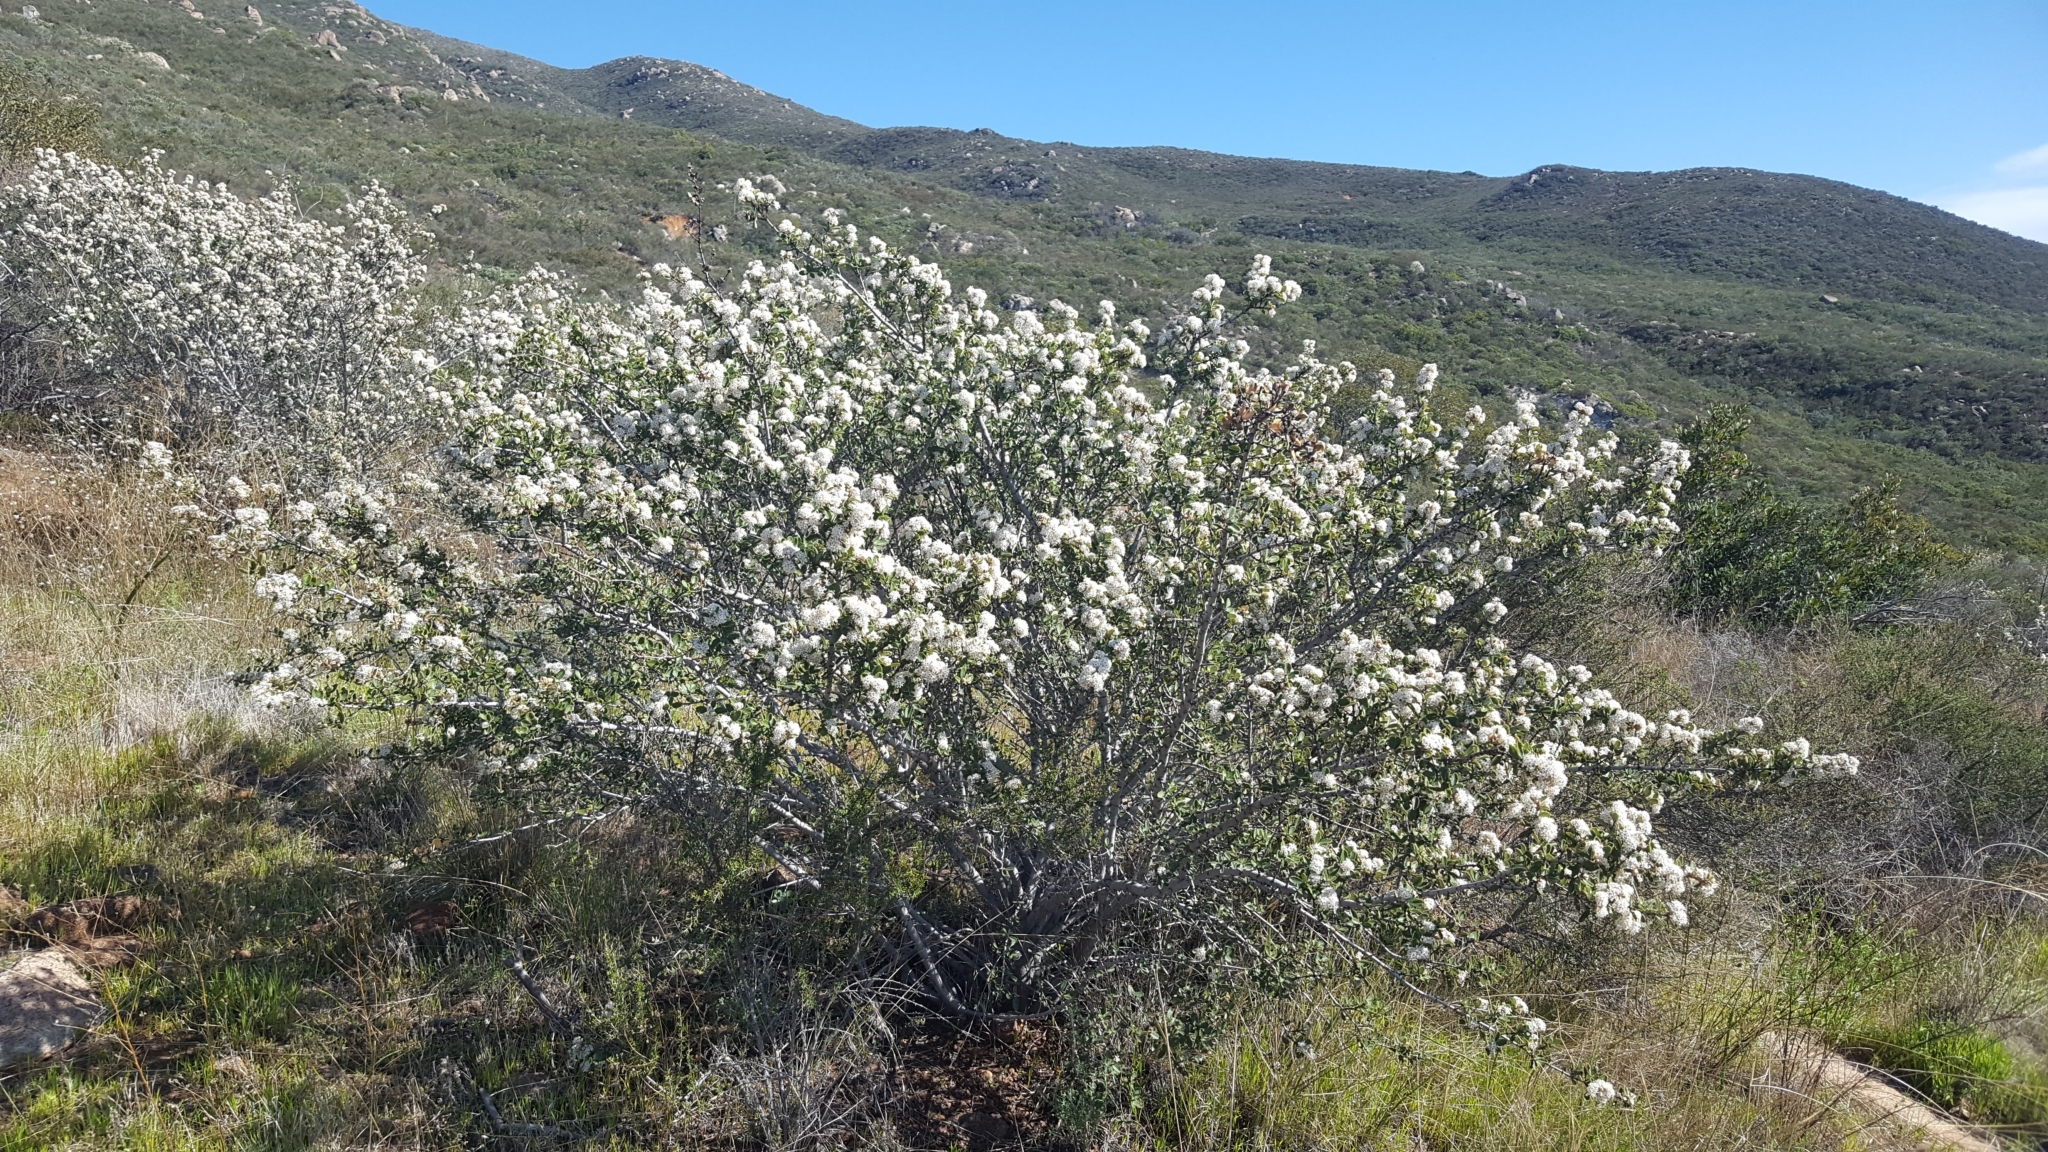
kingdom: Plantae
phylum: Tracheophyta
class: Magnoliopsida
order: Rosales
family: Rhamnaceae
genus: Ceanothus
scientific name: Ceanothus perplexans
